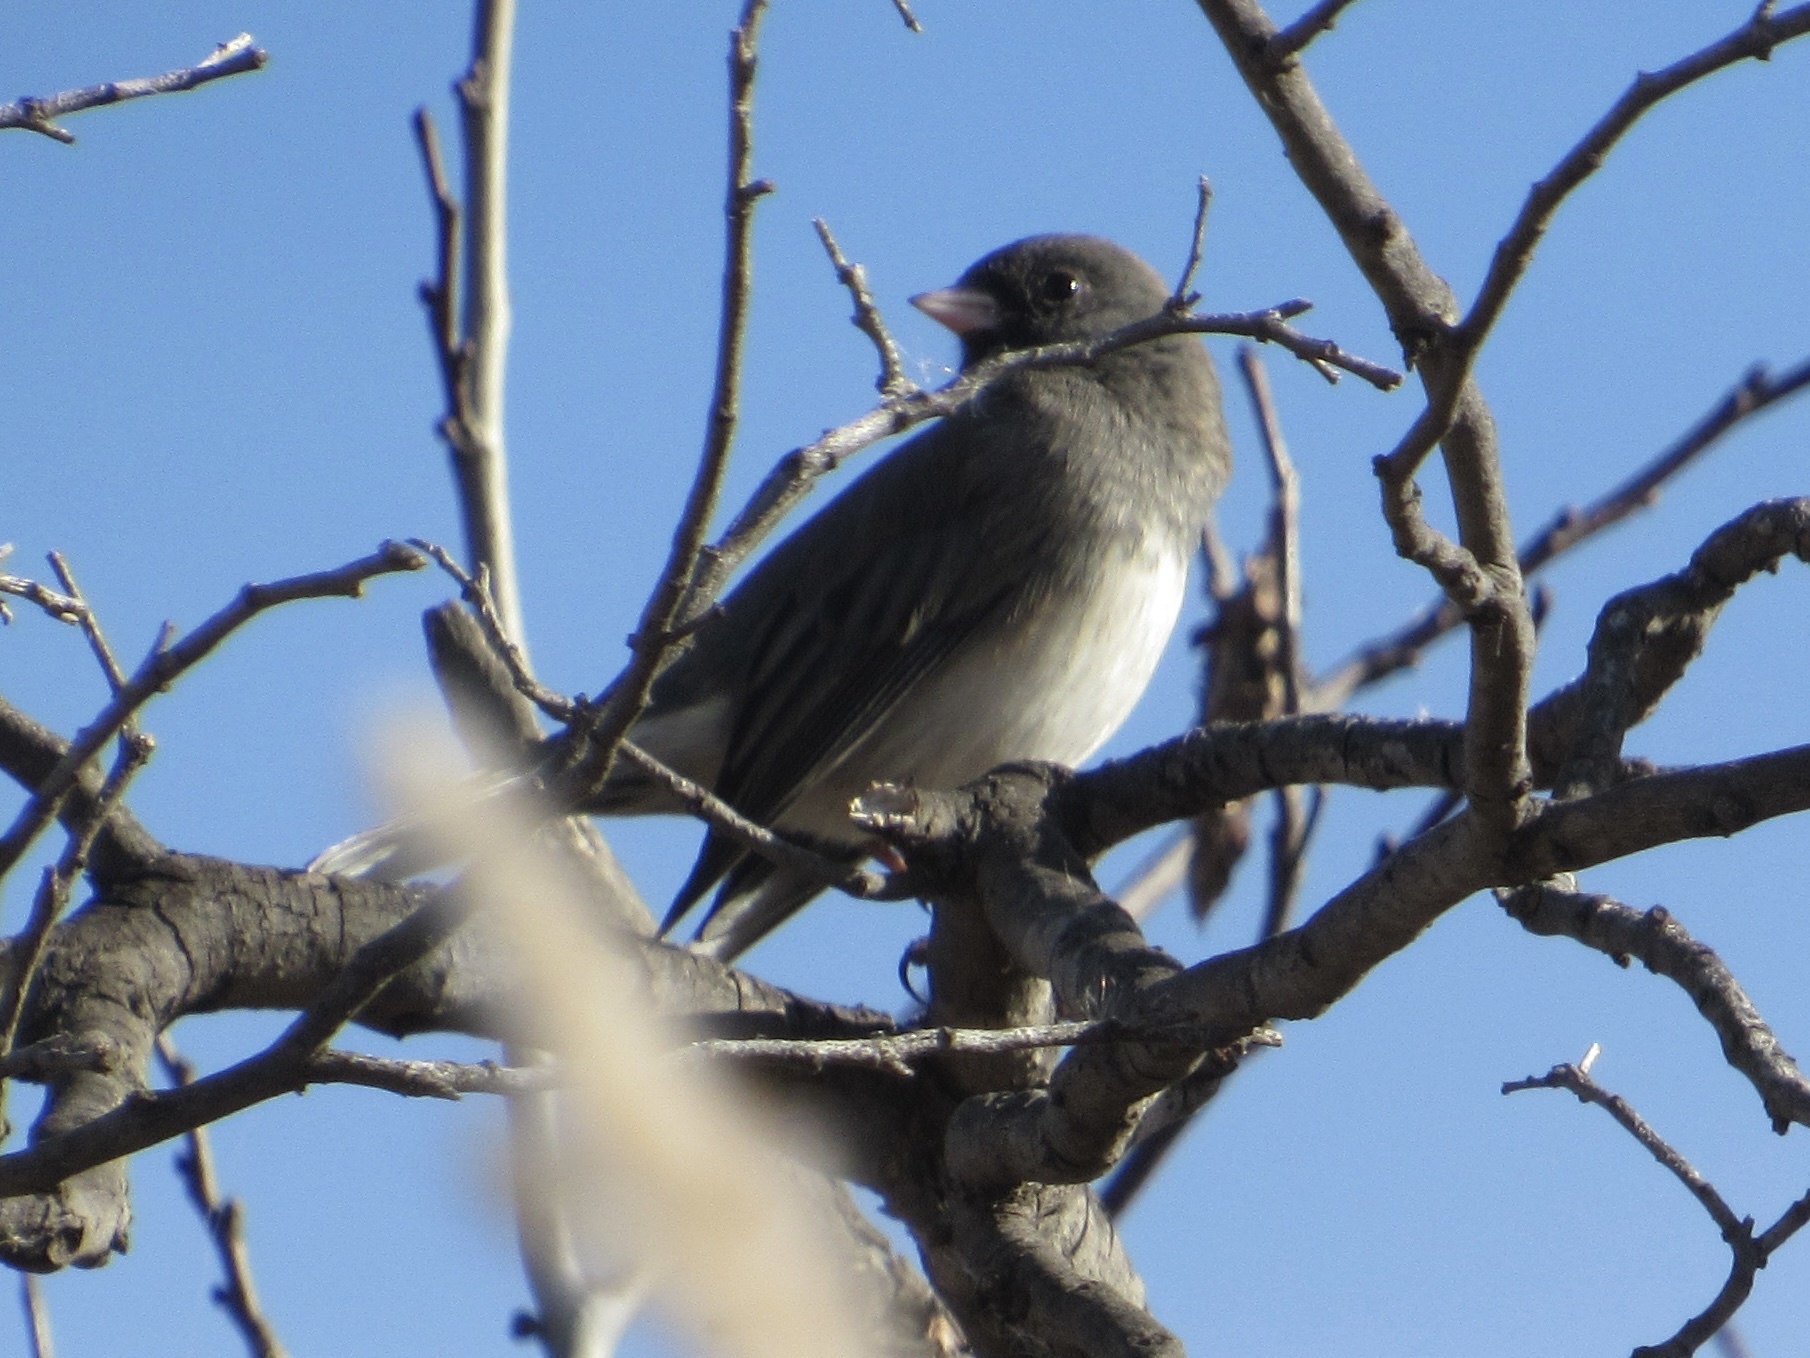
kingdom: Animalia
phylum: Chordata
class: Aves
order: Passeriformes
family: Passerellidae
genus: Junco
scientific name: Junco hyemalis
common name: Dark-eyed junco
